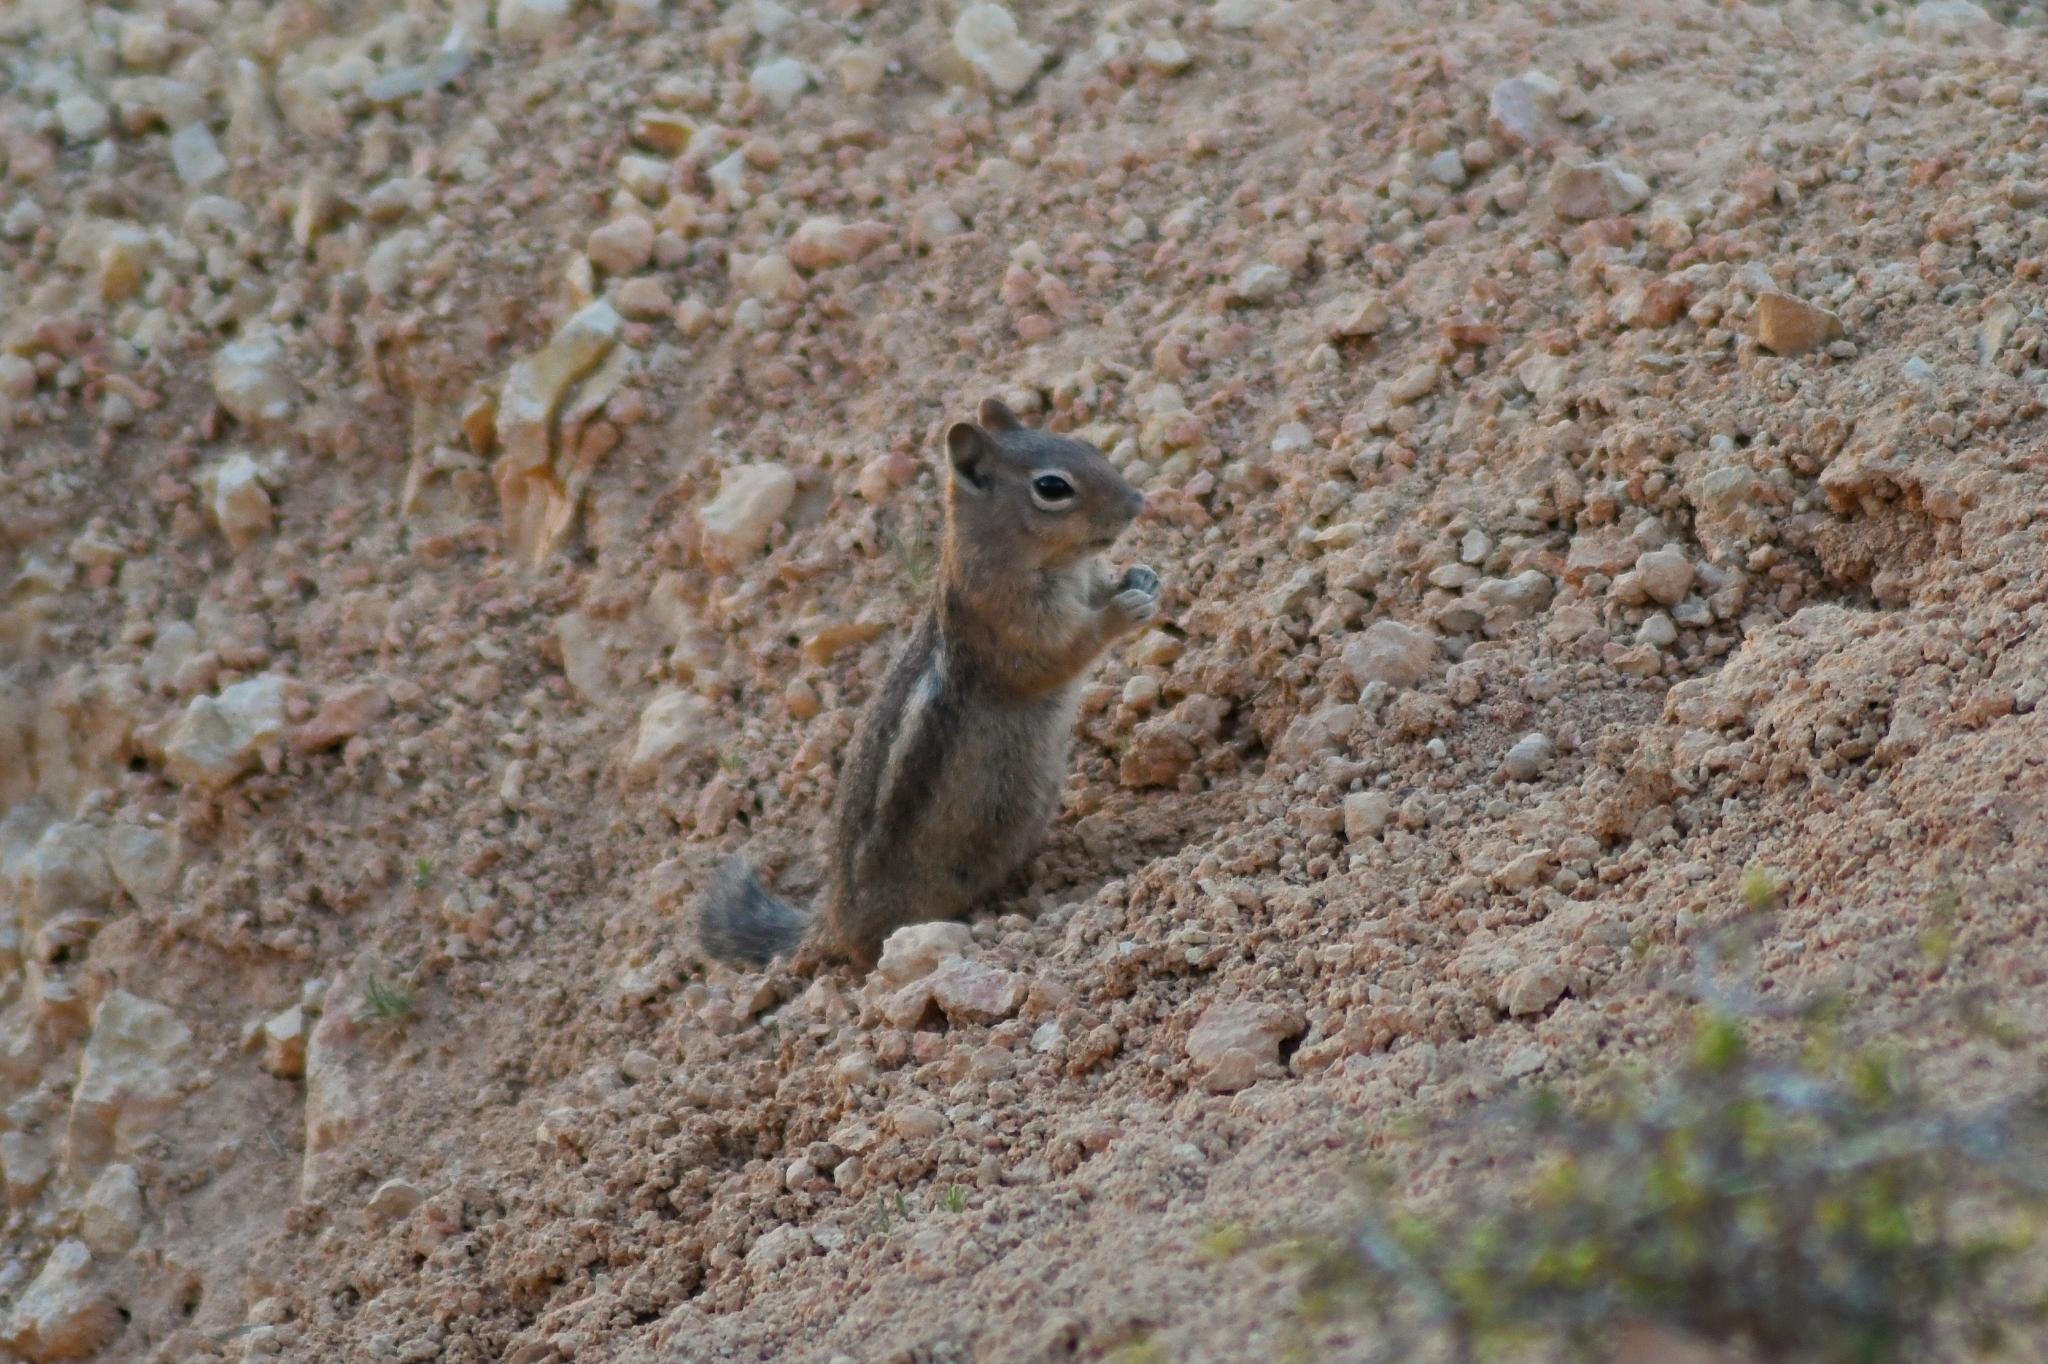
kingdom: Animalia
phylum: Chordata
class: Mammalia
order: Rodentia
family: Sciuridae
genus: Callospermophilus
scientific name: Callospermophilus lateralis
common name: Golden-mantled ground squirrel
